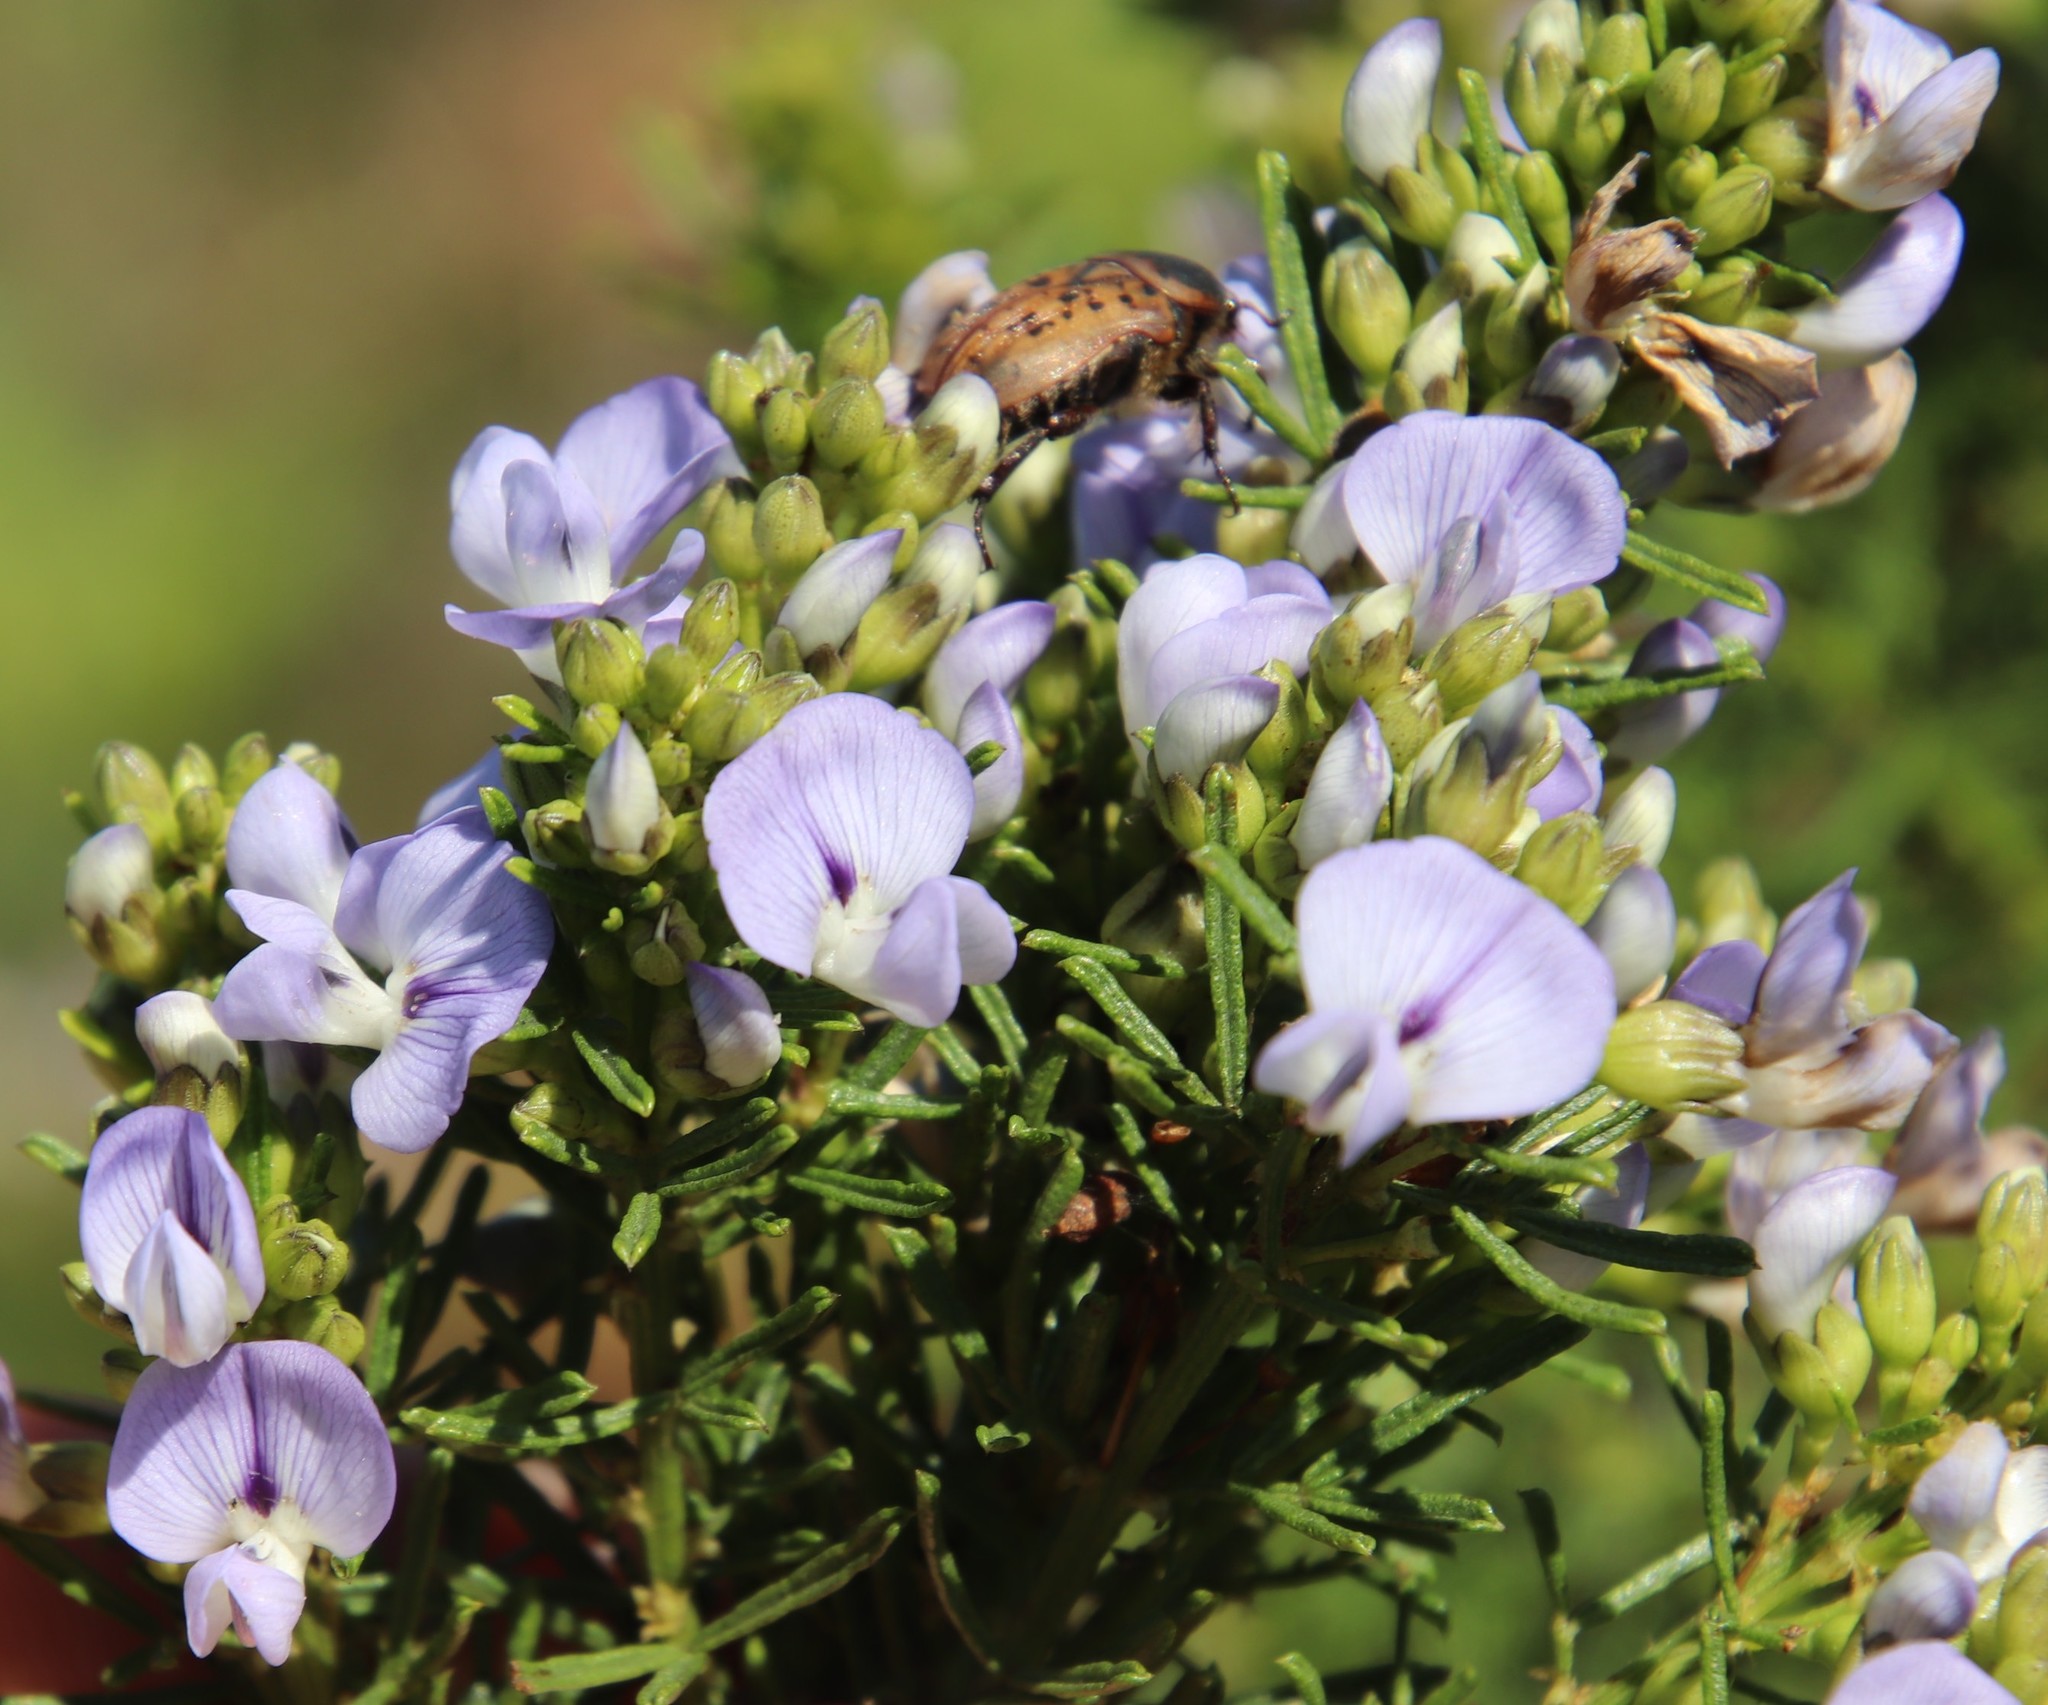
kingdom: Plantae
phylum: Tracheophyta
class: Magnoliopsida
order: Fabales
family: Fabaceae
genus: Psoralea
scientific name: Psoralea glabra
